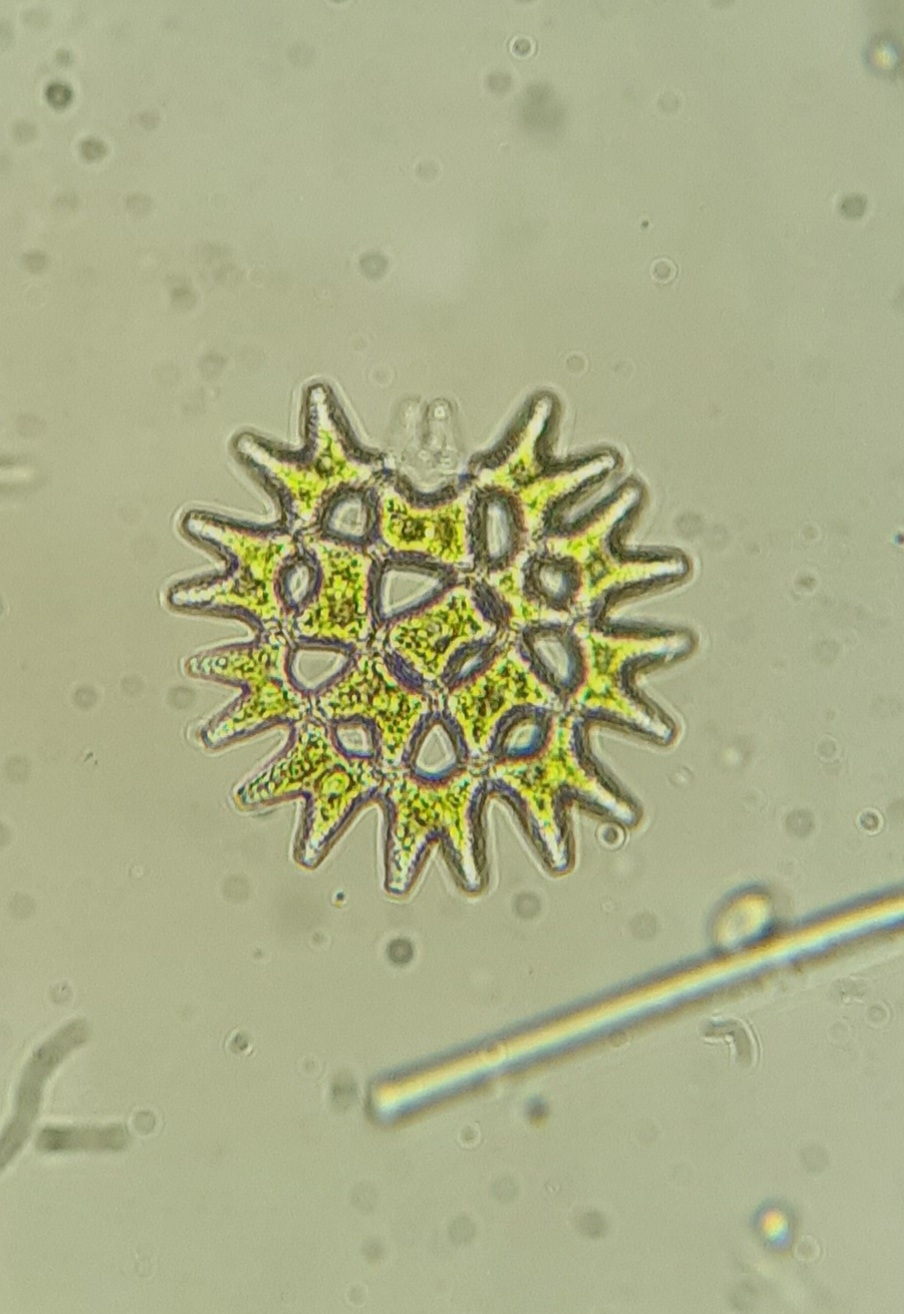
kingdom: Plantae
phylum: Chlorophyta
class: Chlorophyceae
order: Sphaeropleales
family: Hydrodictyaceae
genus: Pediastrum
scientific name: Pediastrum duplex
